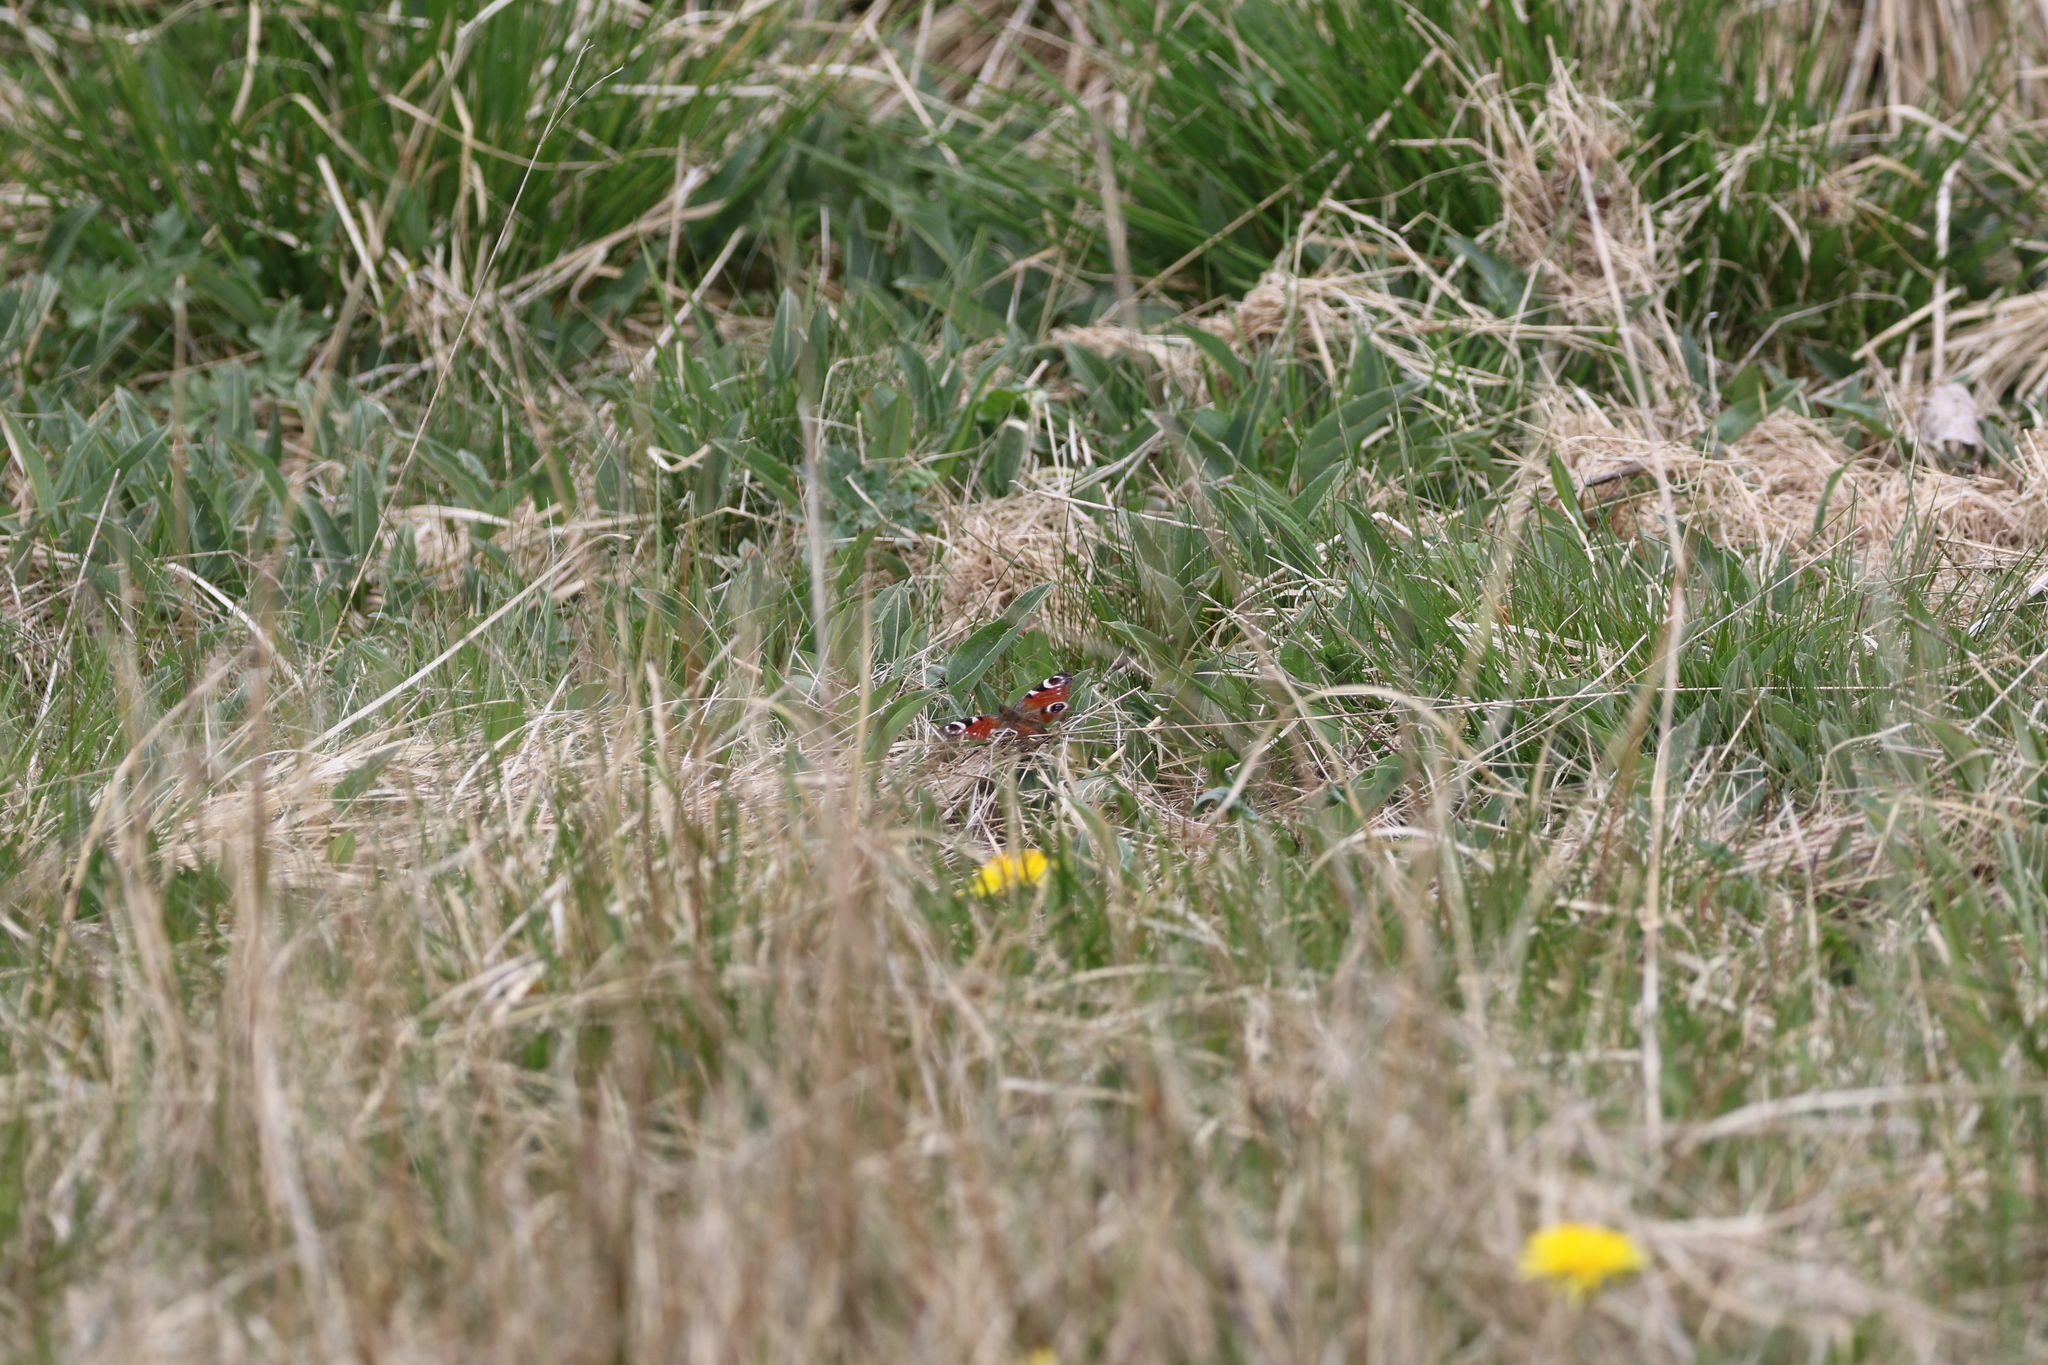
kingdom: Animalia
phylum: Arthropoda
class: Insecta
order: Lepidoptera
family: Nymphalidae
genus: Aglais
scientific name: Aglais io
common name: Peacock
